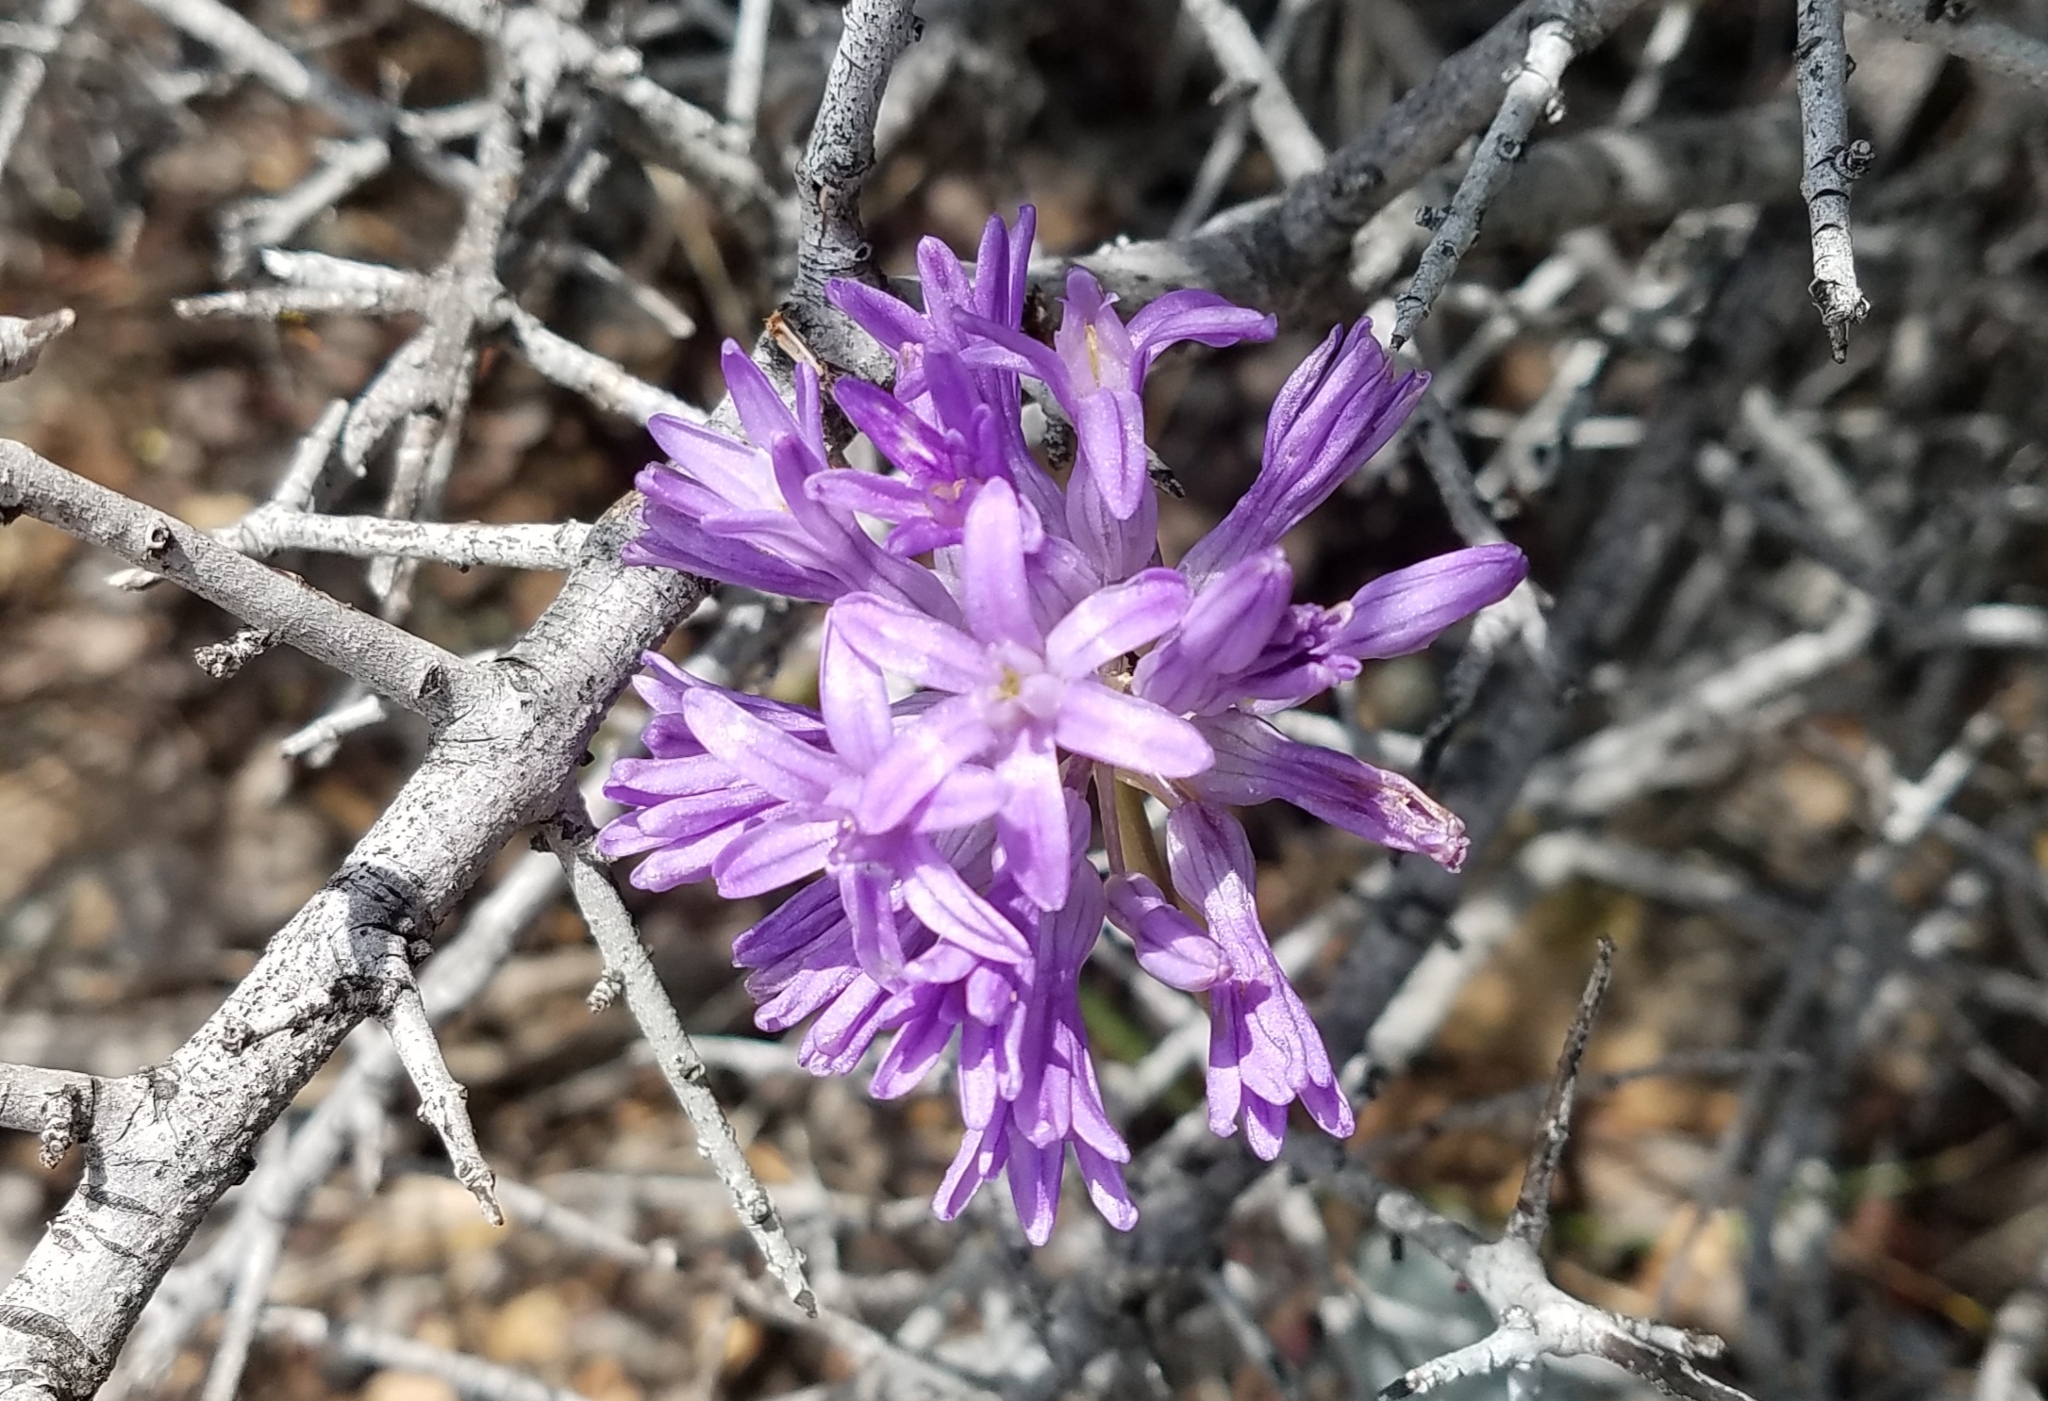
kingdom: Plantae
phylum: Tracheophyta
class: Liliopsida
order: Asparagales
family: Asparagaceae
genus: Dichelostemma
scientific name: Dichelostemma multiflorum
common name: Round-tooth ookow
